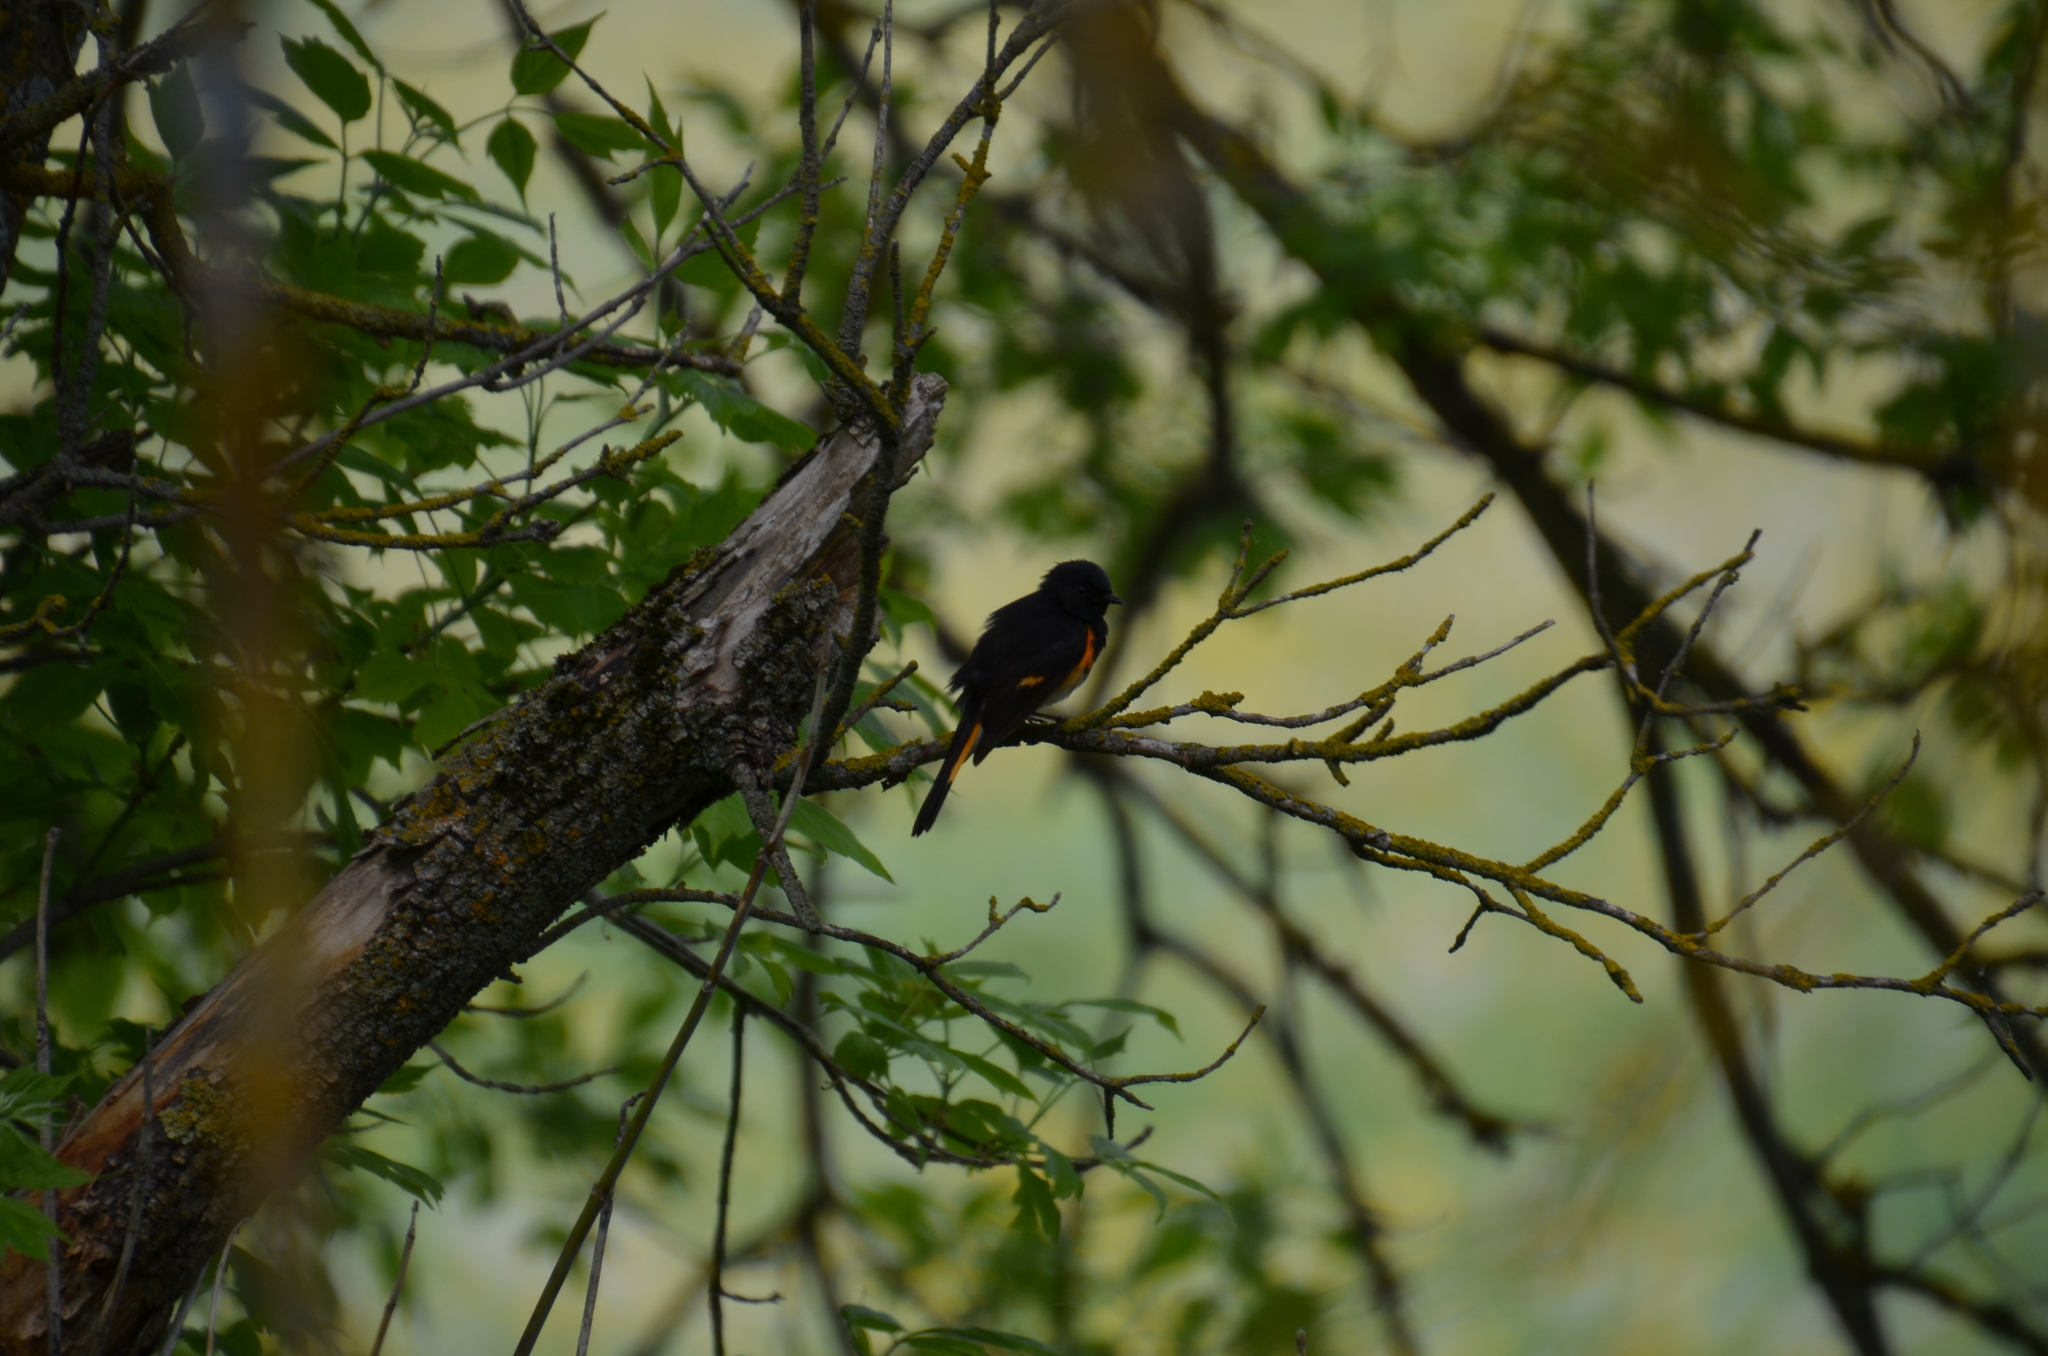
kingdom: Animalia
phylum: Chordata
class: Aves
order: Passeriformes
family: Parulidae
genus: Setophaga
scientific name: Setophaga ruticilla
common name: American redstart
